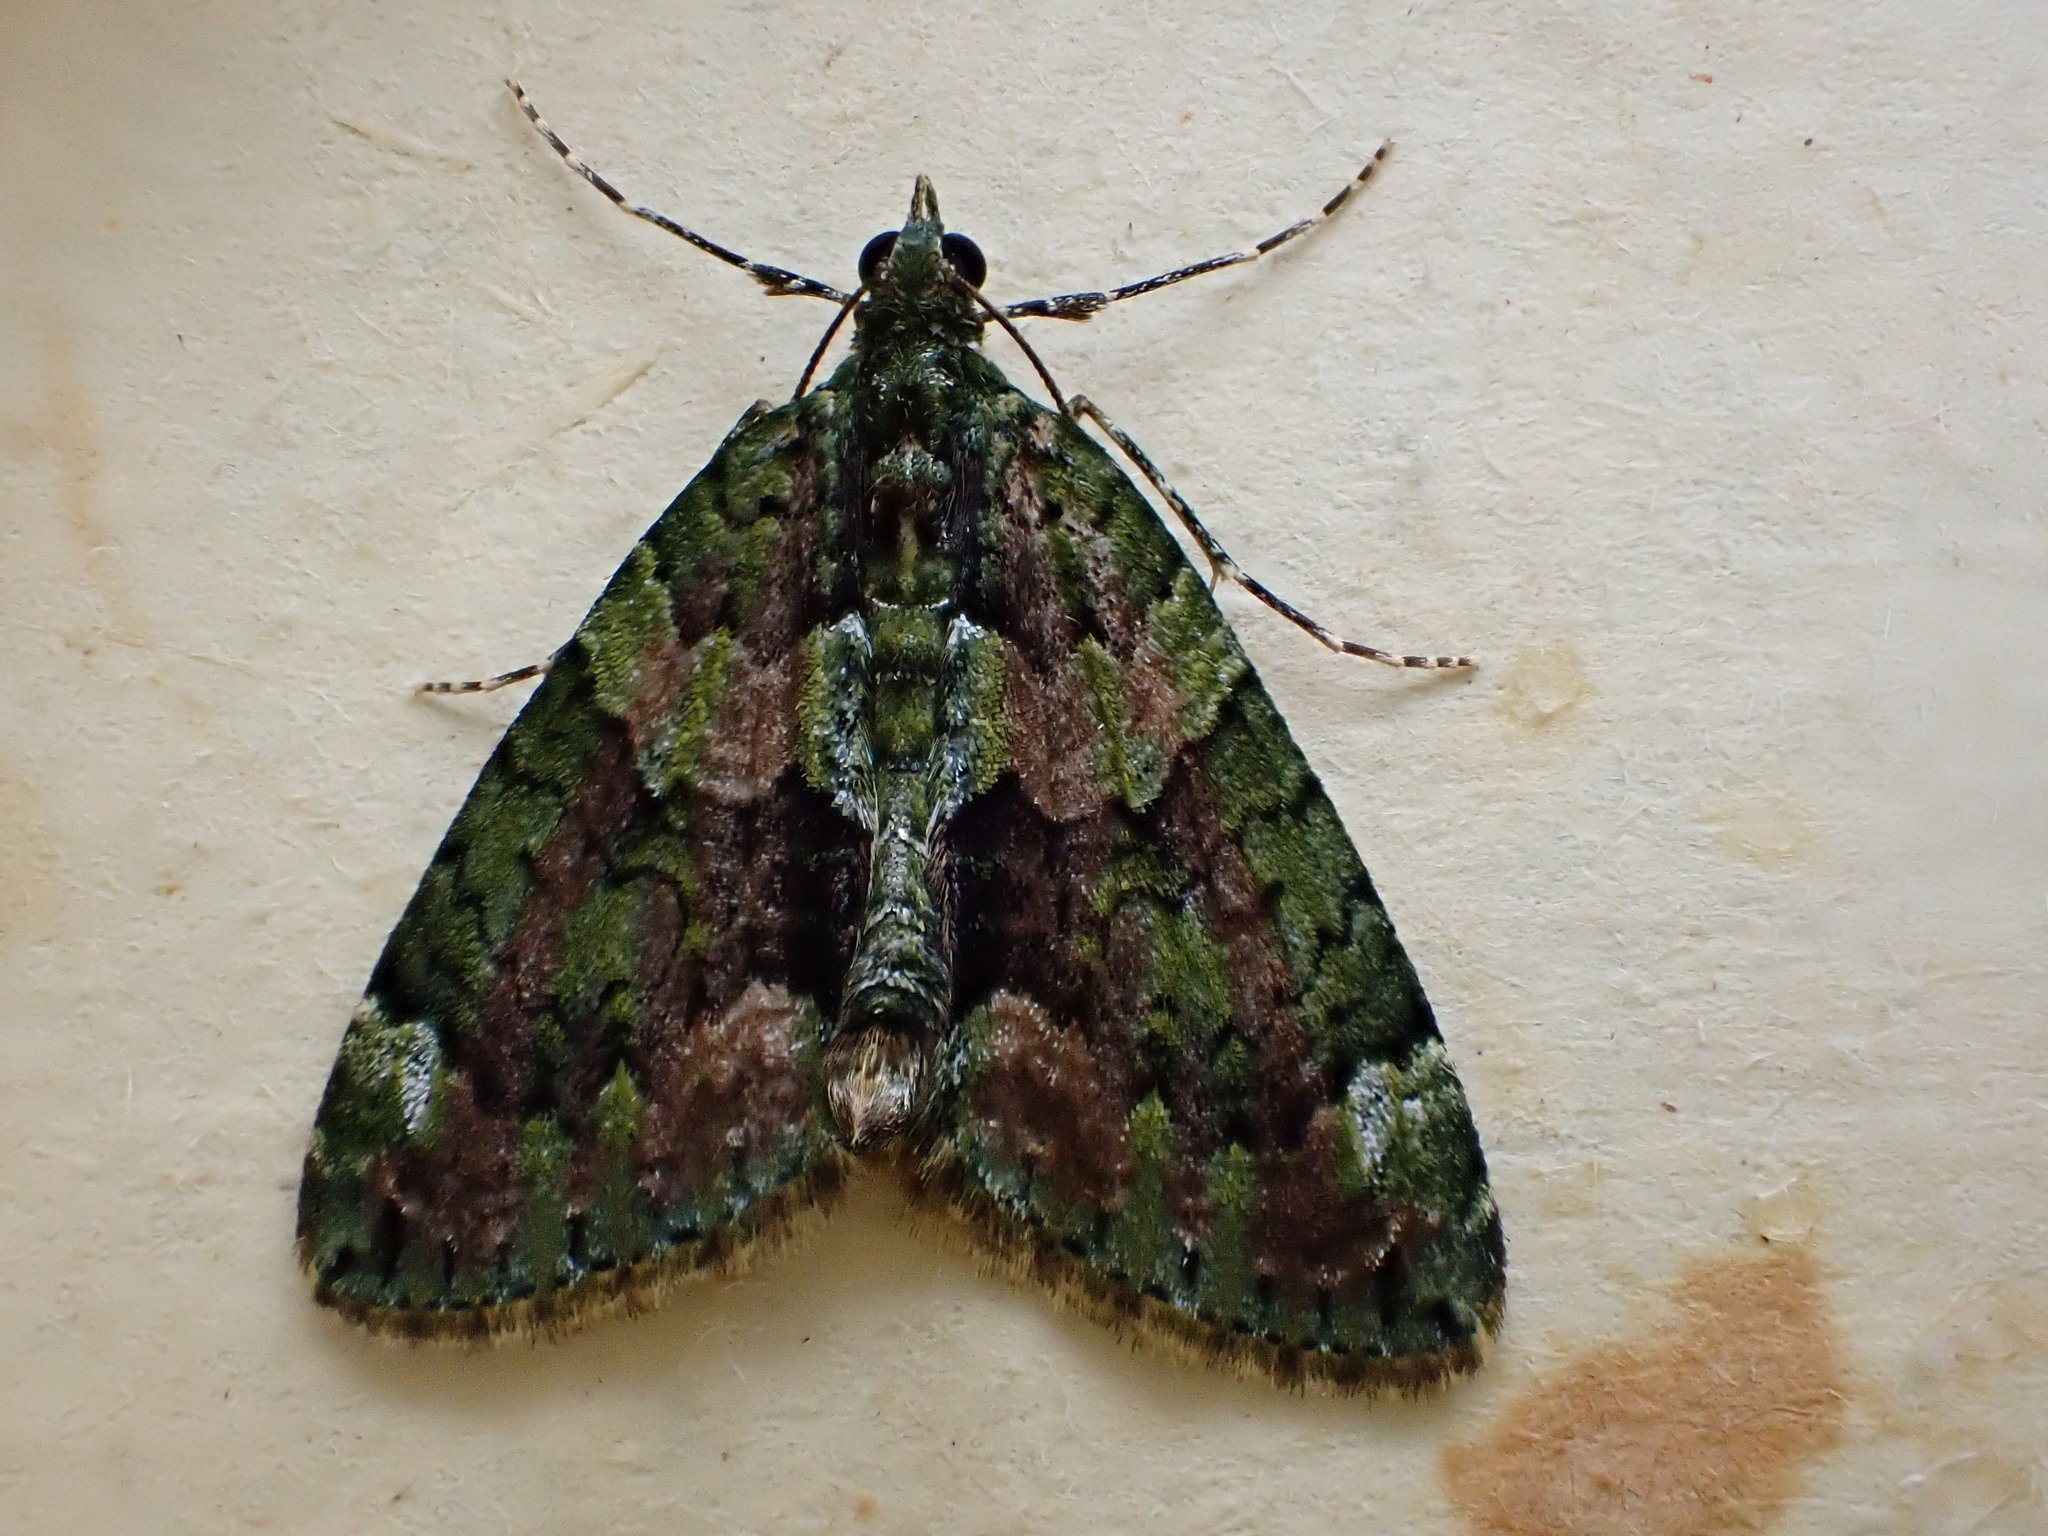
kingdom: Animalia
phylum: Arthropoda
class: Insecta
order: Lepidoptera
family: Geometridae
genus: Chloroclysta
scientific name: Chloroclysta siterata
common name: Red-green carpet
